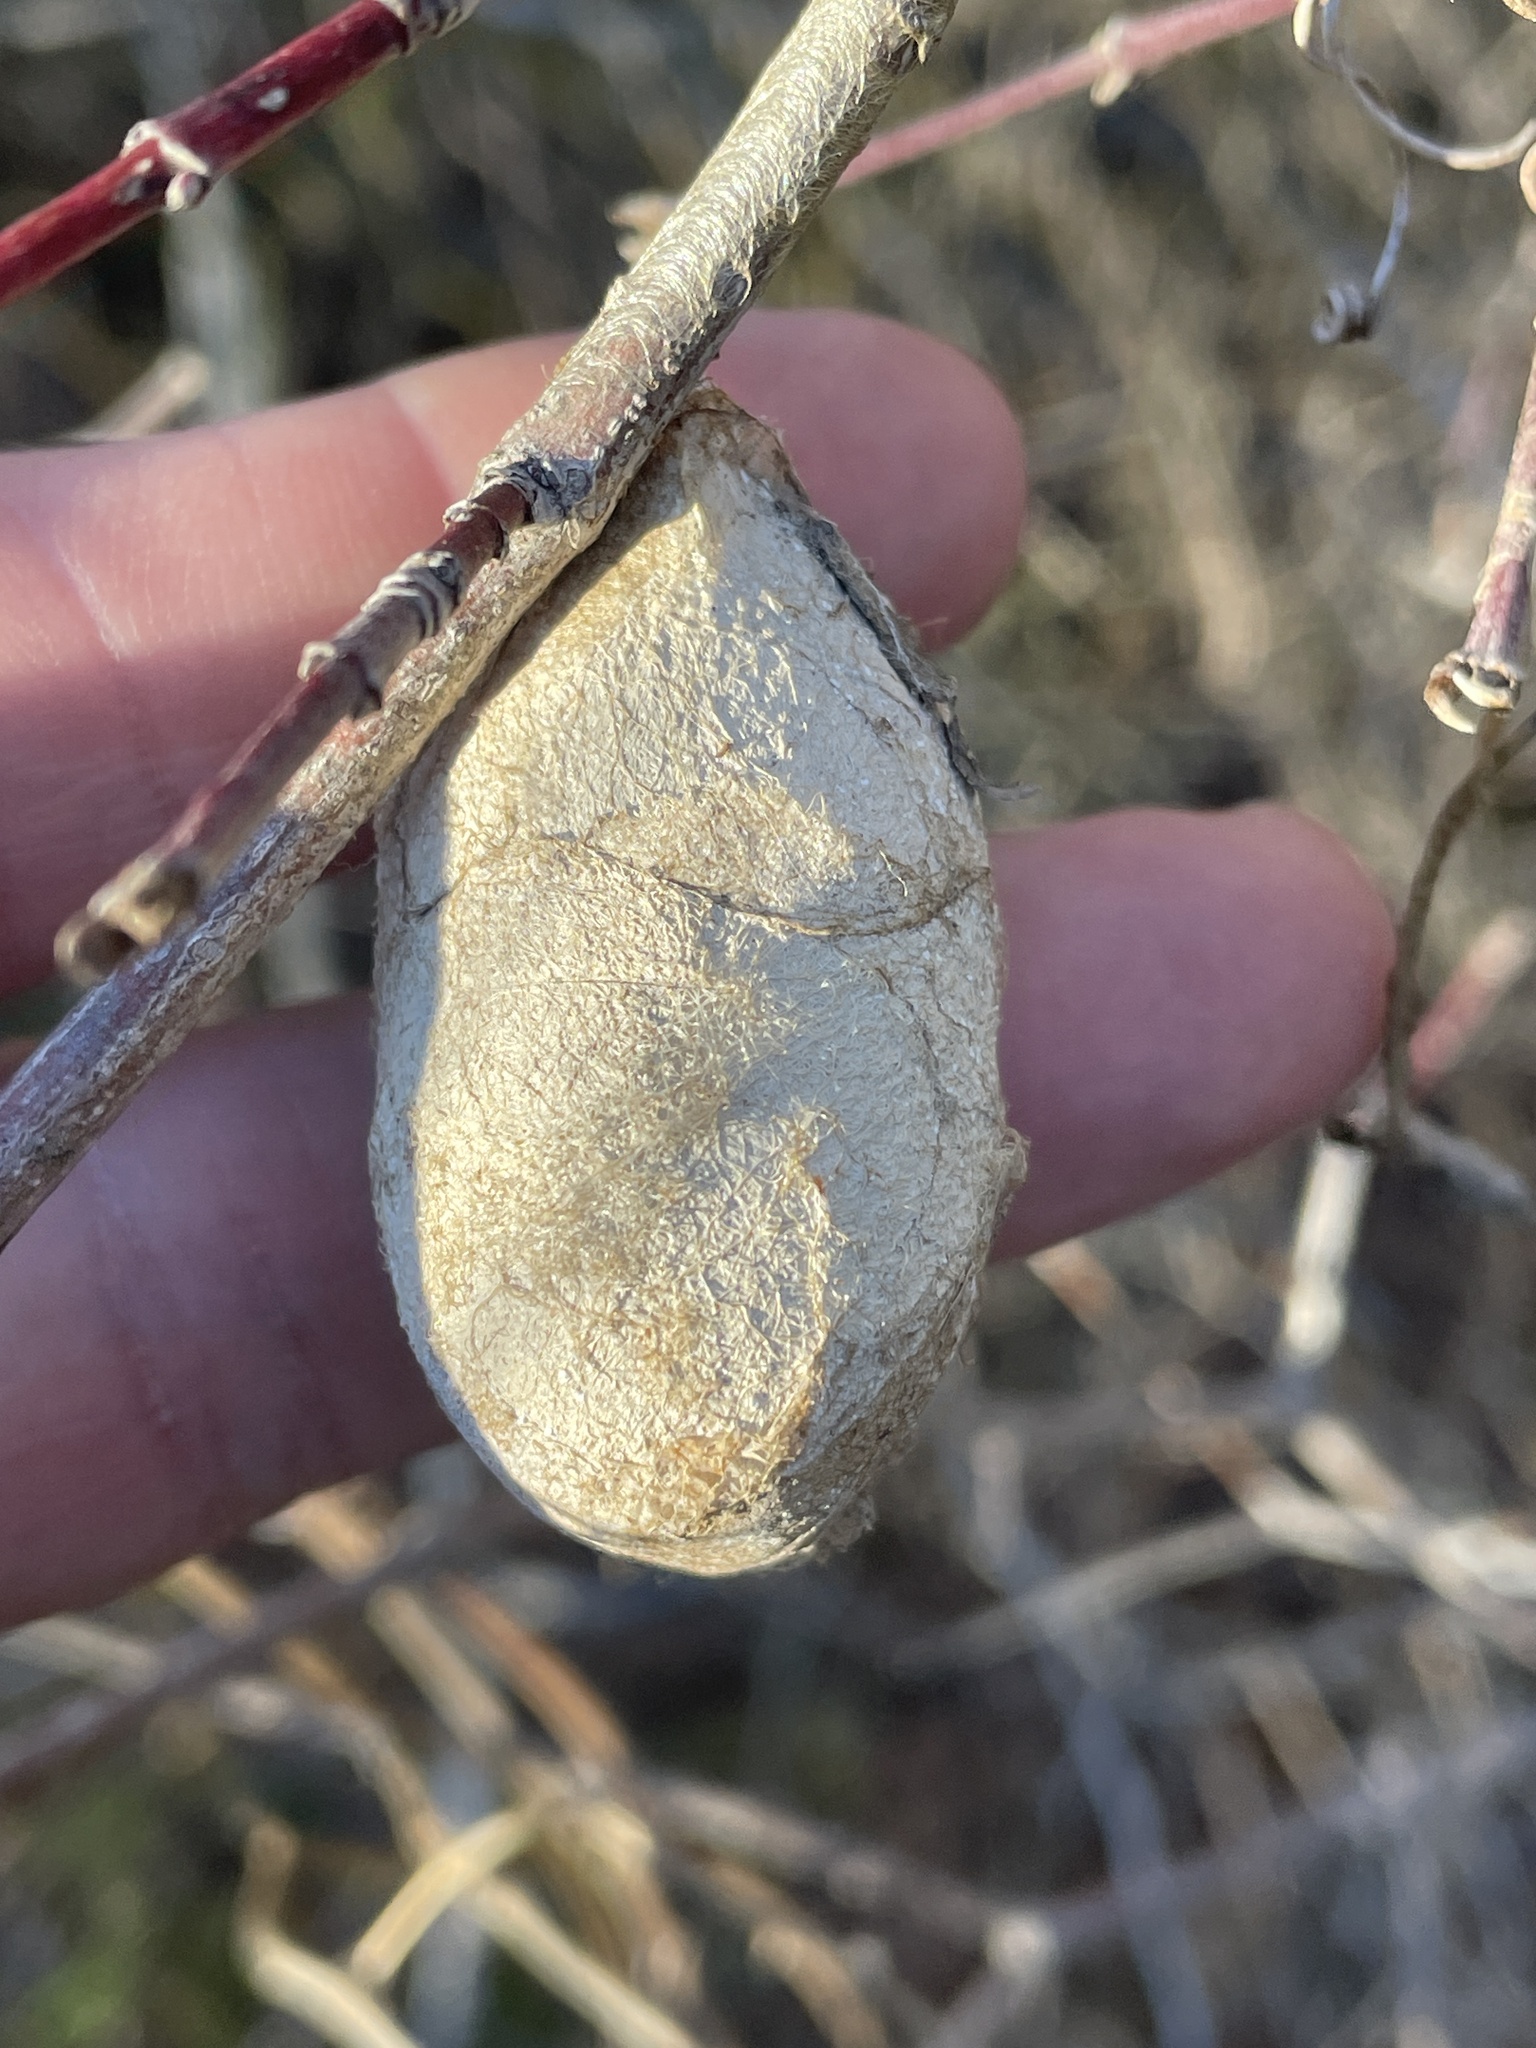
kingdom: Animalia
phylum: Arthropoda
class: Insecta
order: Lepidoptera
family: Saturniidae
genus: Antheraea
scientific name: Antheraea polyphemus
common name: Polyphemus moth
